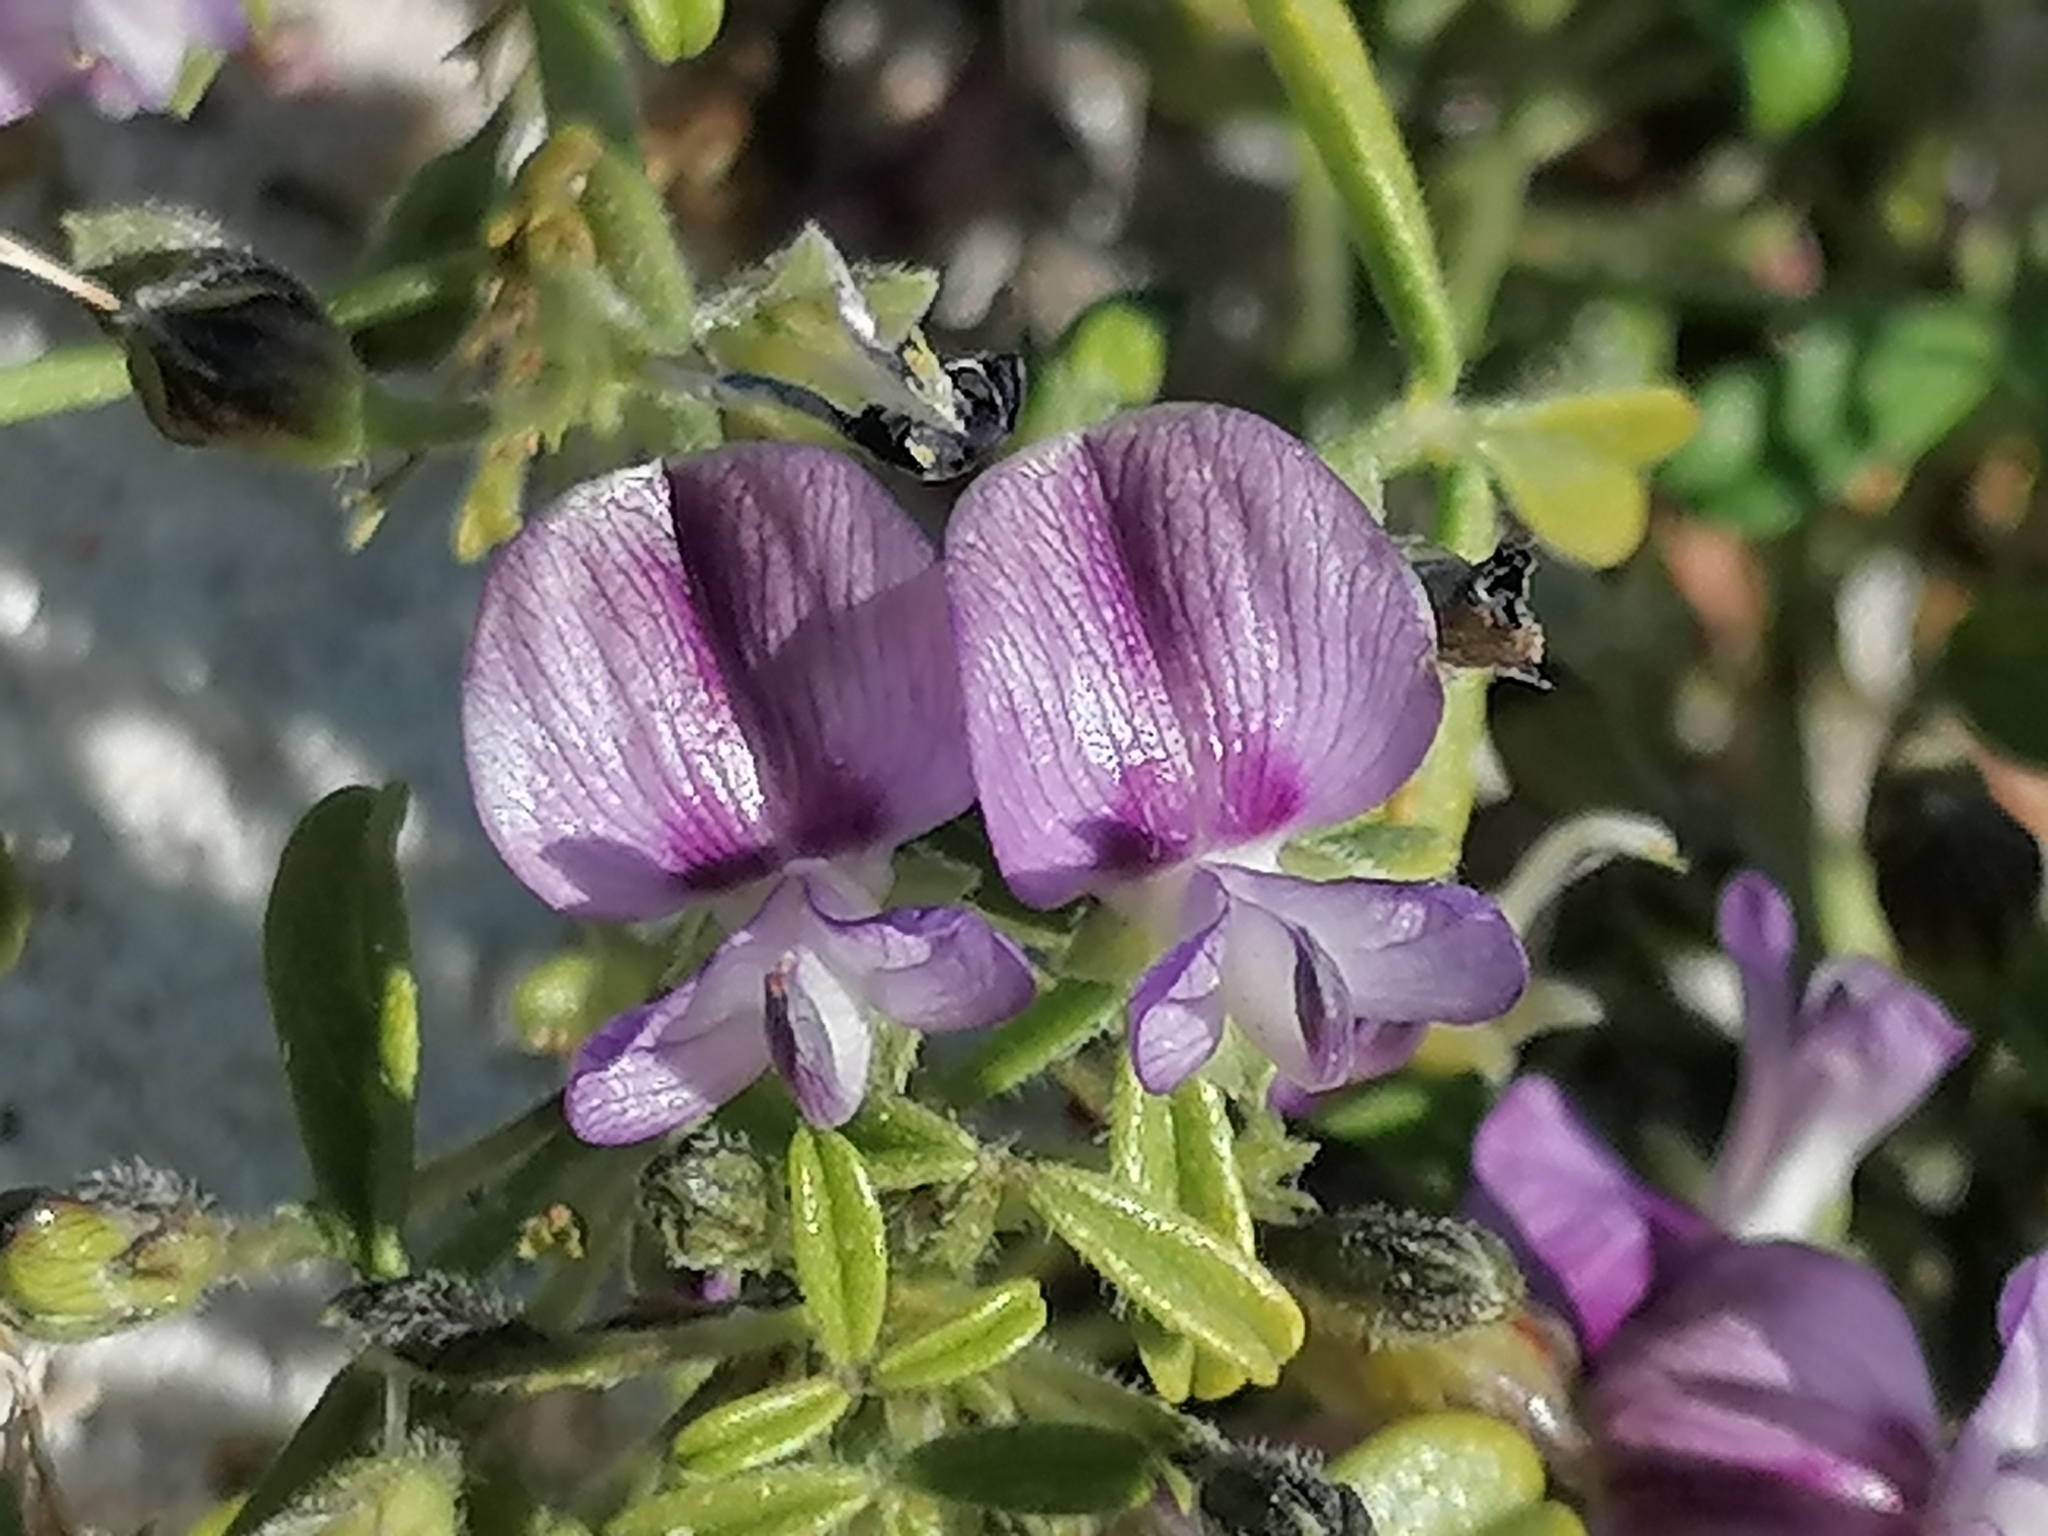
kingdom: Plantae
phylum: Tracheophyta
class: Magnoliopsida
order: Fabales
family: Fabaceae
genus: Psoralea
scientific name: Psoralea repens
